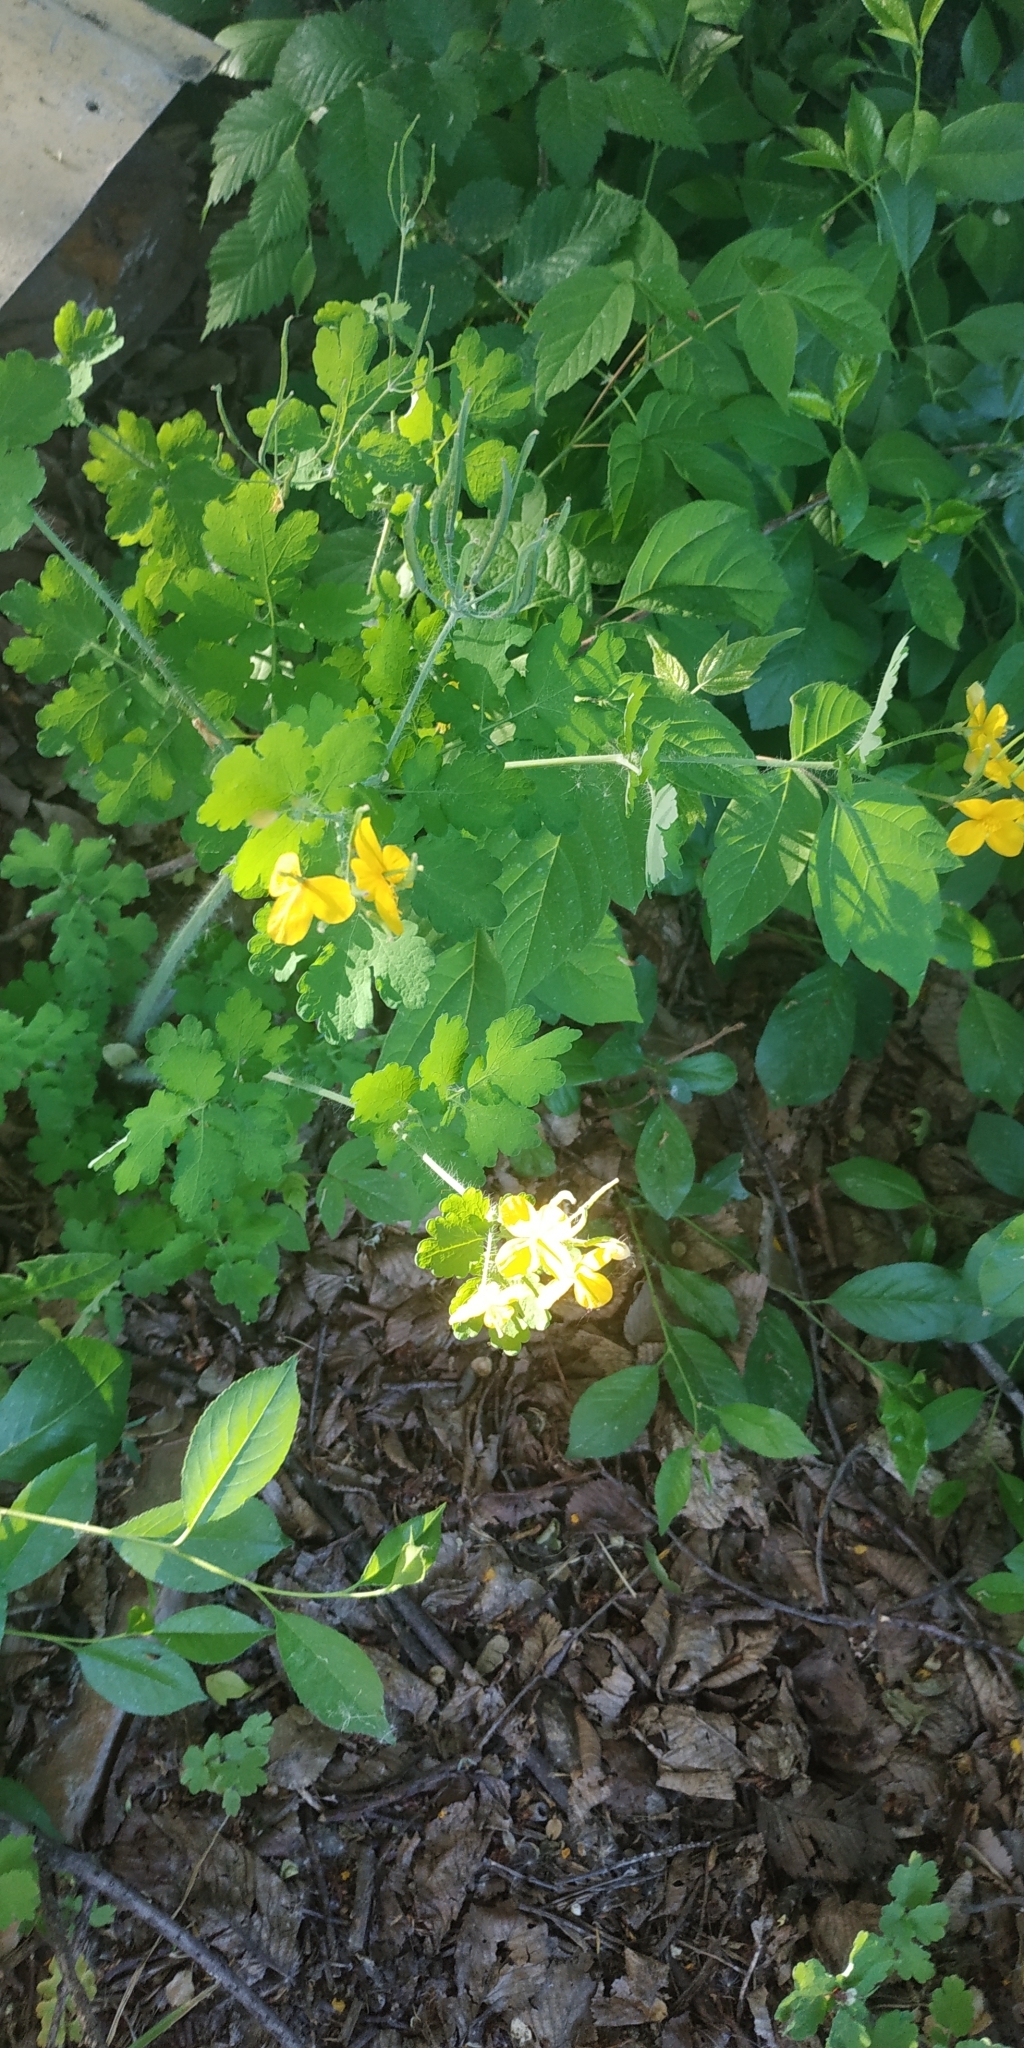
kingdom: Plantae
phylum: Tracheophyta
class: Magnoliopsida
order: Ranunculales
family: Papaveraceae
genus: Chelidonium
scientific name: Chelidonium majus
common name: Greater celandine
